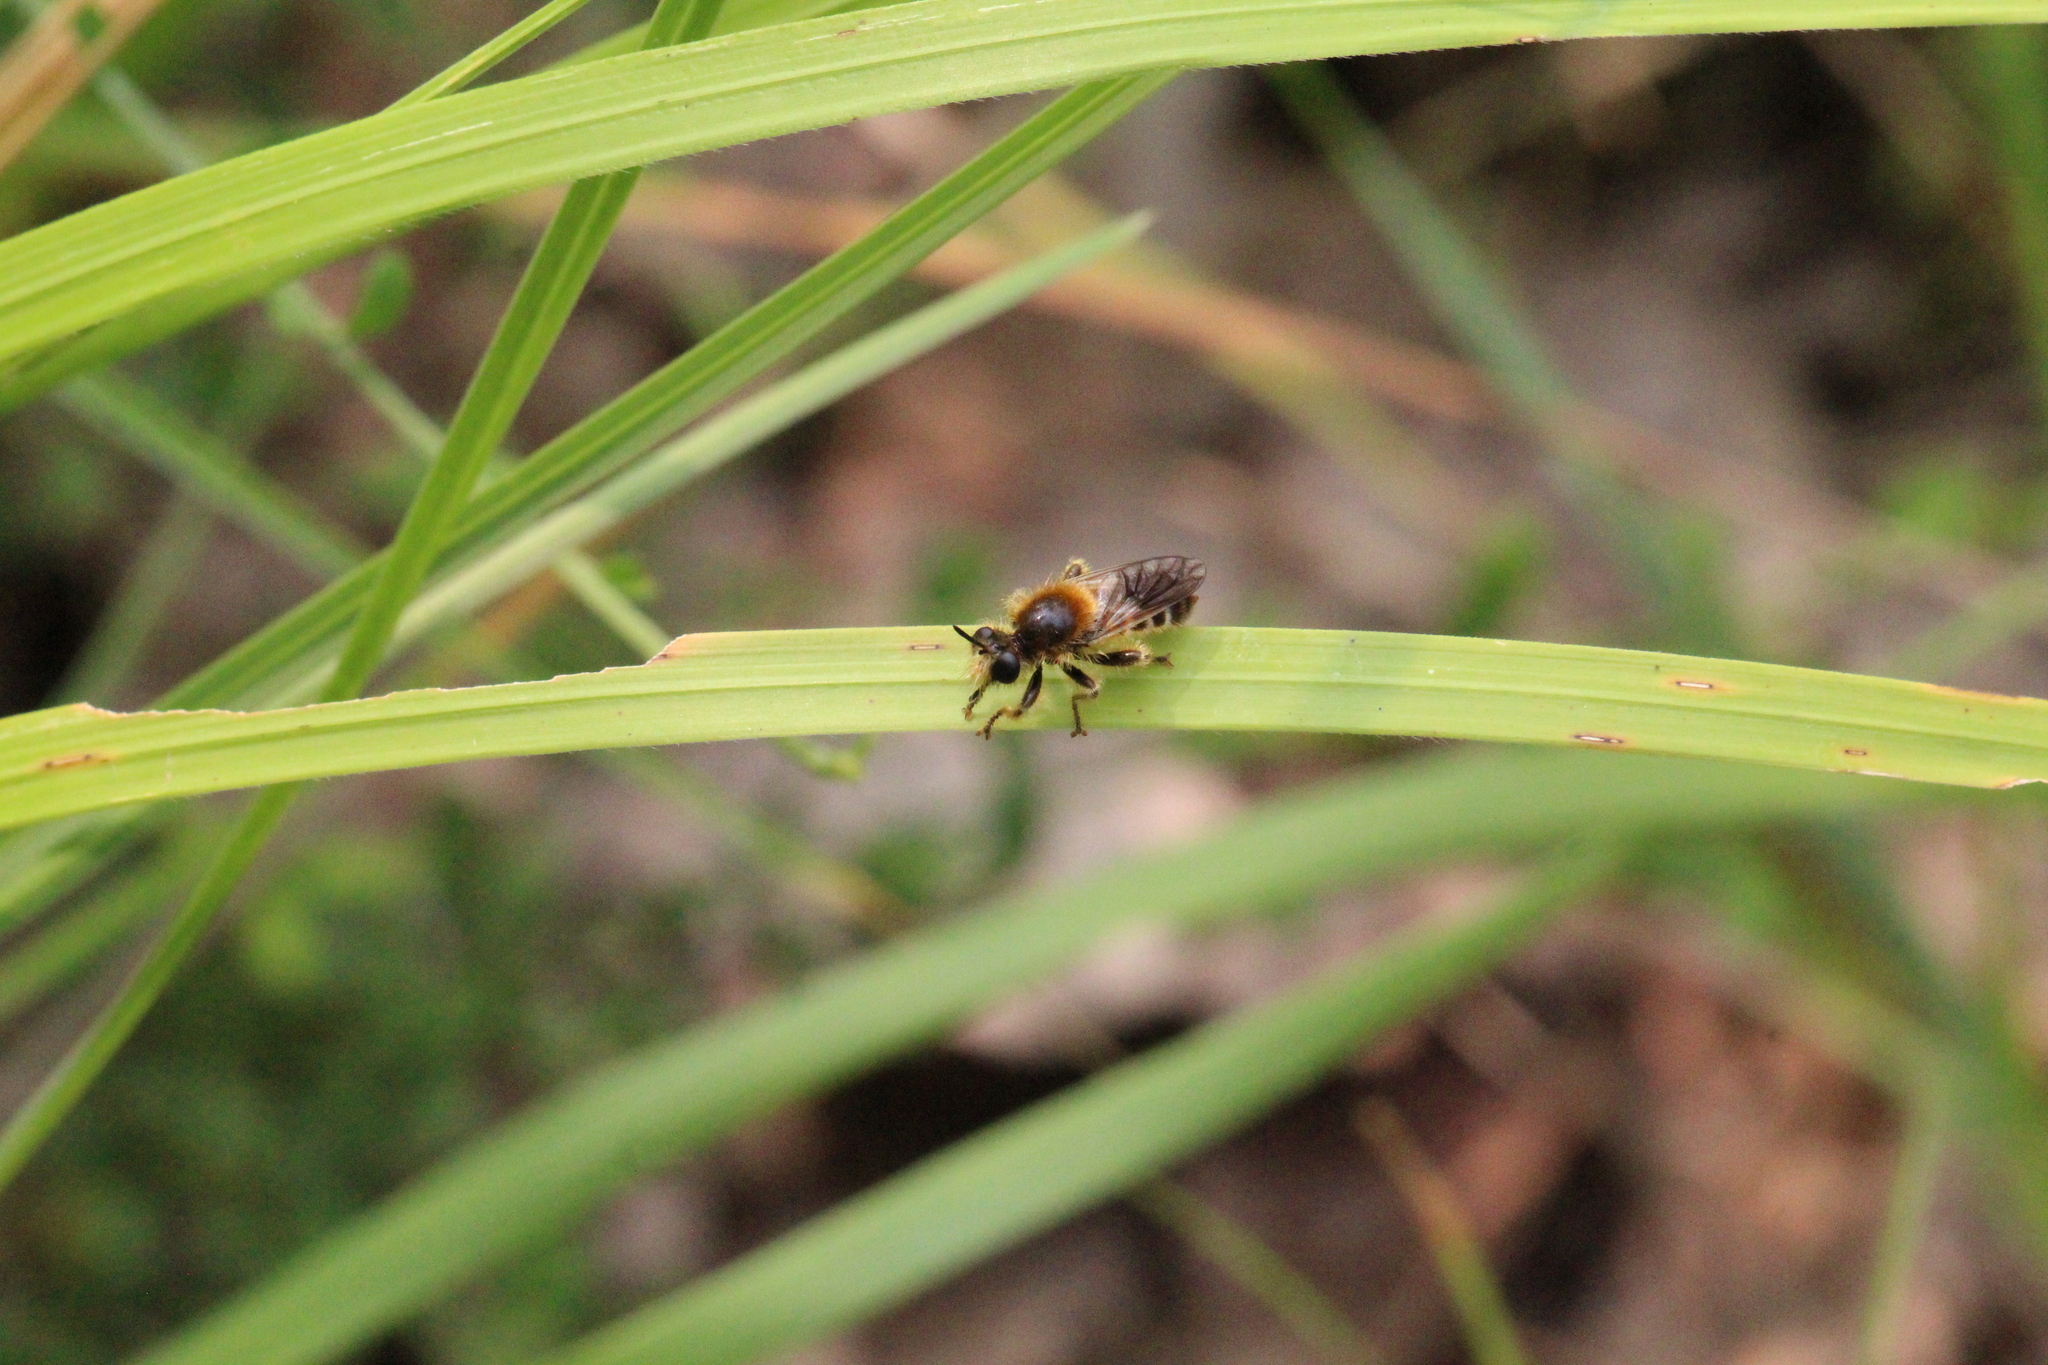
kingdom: Animalia
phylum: Arthropoda
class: Insecta
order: Diptera
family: Asilidae
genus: Lamyra
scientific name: Lamyra fuliginosa
